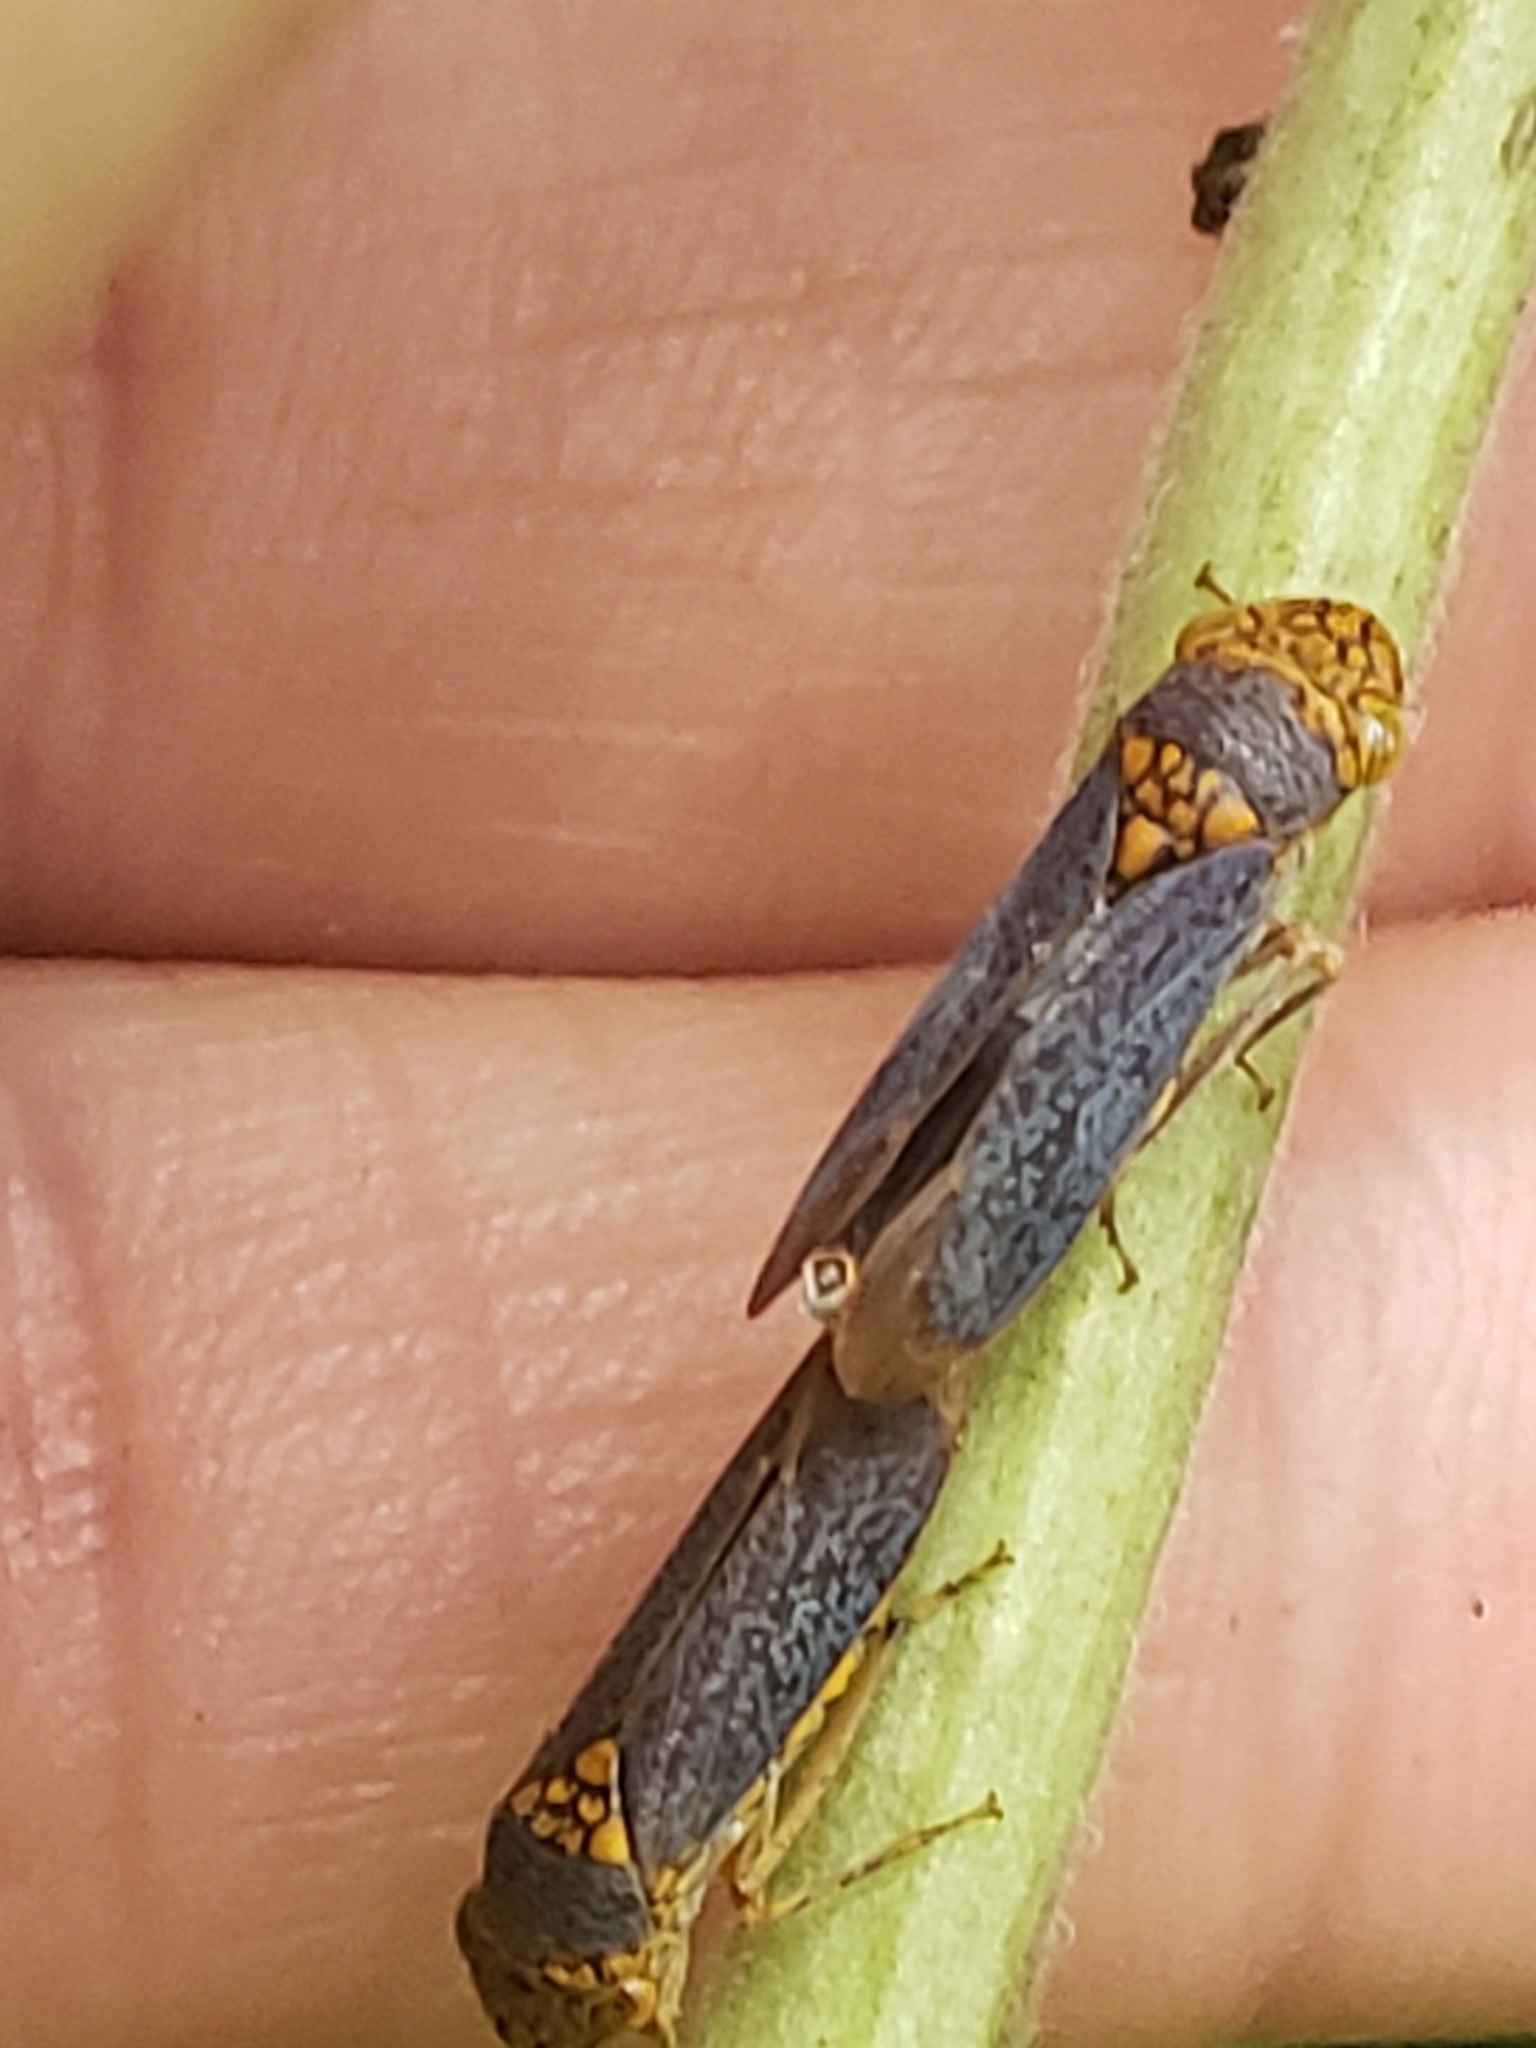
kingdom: Animalia
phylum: Arthropoda
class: Insecta
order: Hemiptera
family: Cicadellidae
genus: Oncometopia
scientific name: Oncometopia orbona
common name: Broad-headed sharpshooter
